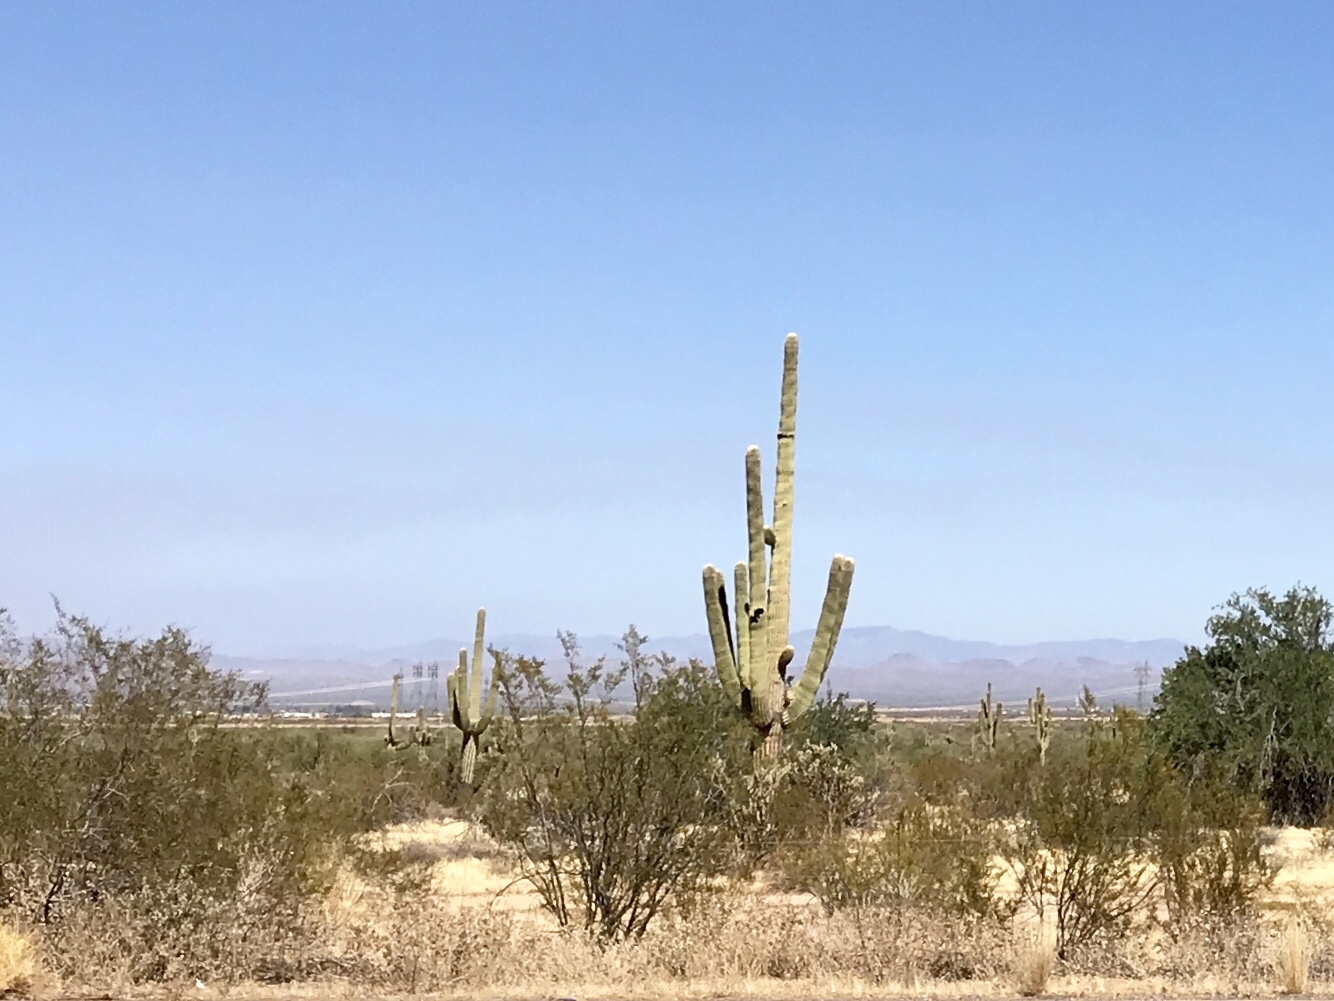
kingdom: Plantae
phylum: Tracheophyta
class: Magnoliopsida
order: Caryophyllales
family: Cactaceae
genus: Carnegiea
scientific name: Carnegiea gigantea
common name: Saguaro
